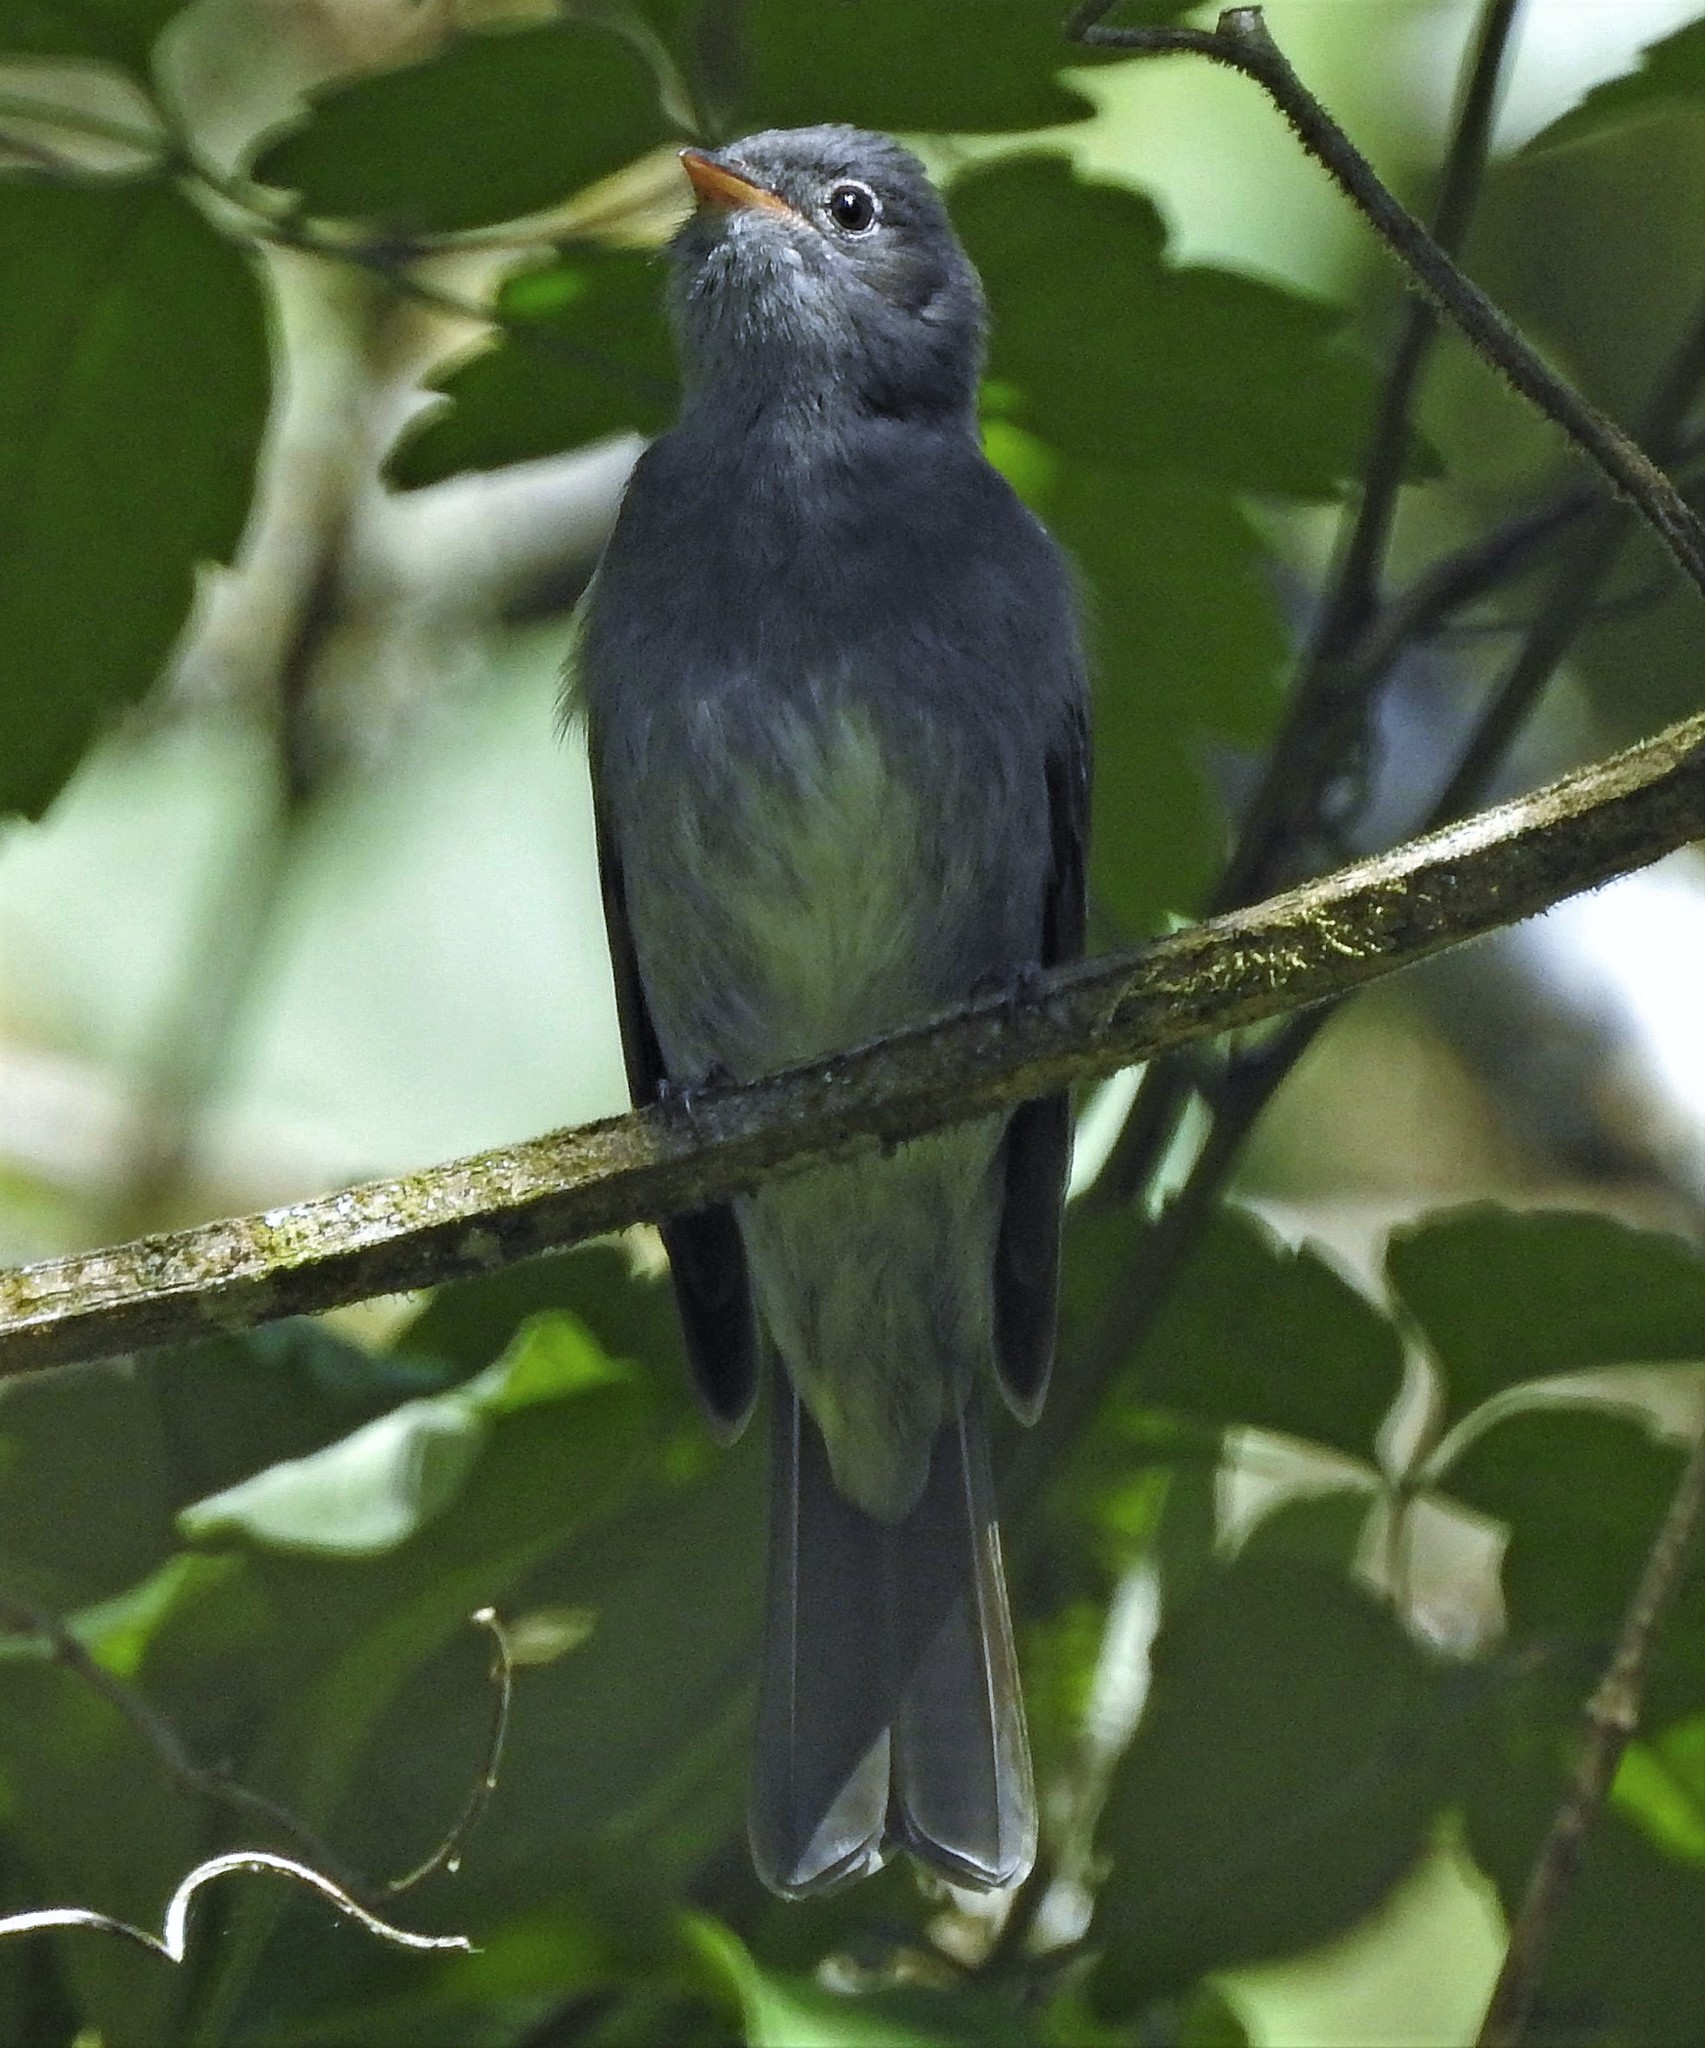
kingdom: Animalia
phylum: Chordata
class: Aves
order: Passeriformes
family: Tyrannidae
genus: Elaenia
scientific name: Elaenia strepera
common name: Slaty elaenia
